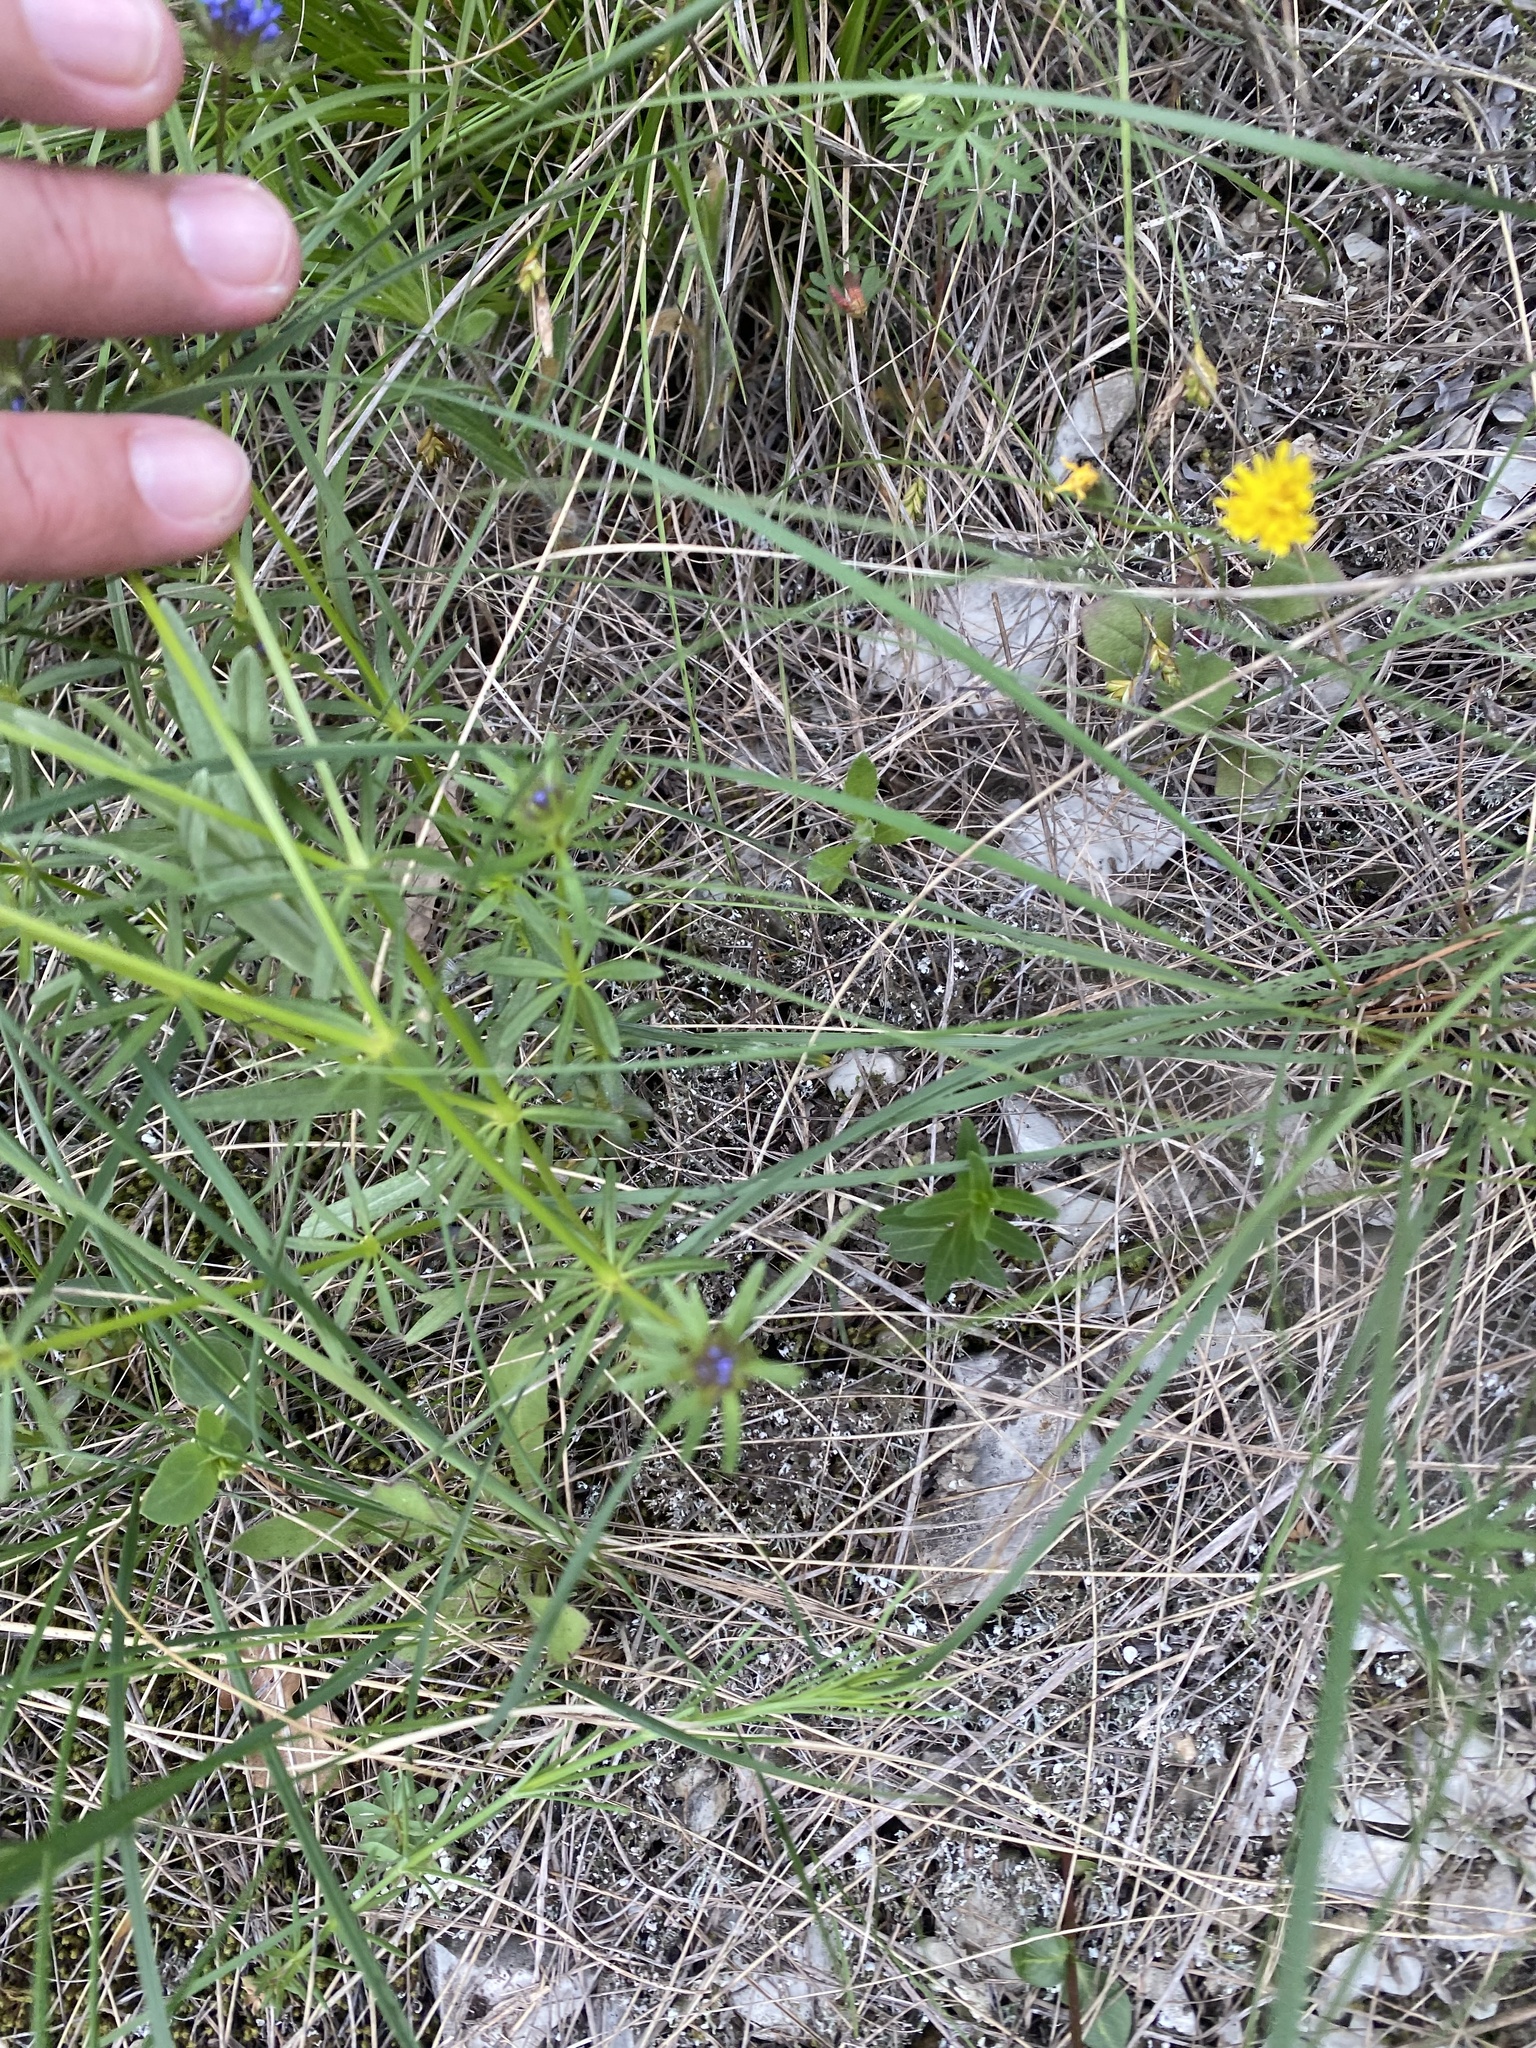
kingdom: Plantae
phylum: Tracheophyta
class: Magnoliopsida
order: Gentianales
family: Rubiaceae
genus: Sherardia
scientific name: Sherardia arvensis
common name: Field madder
